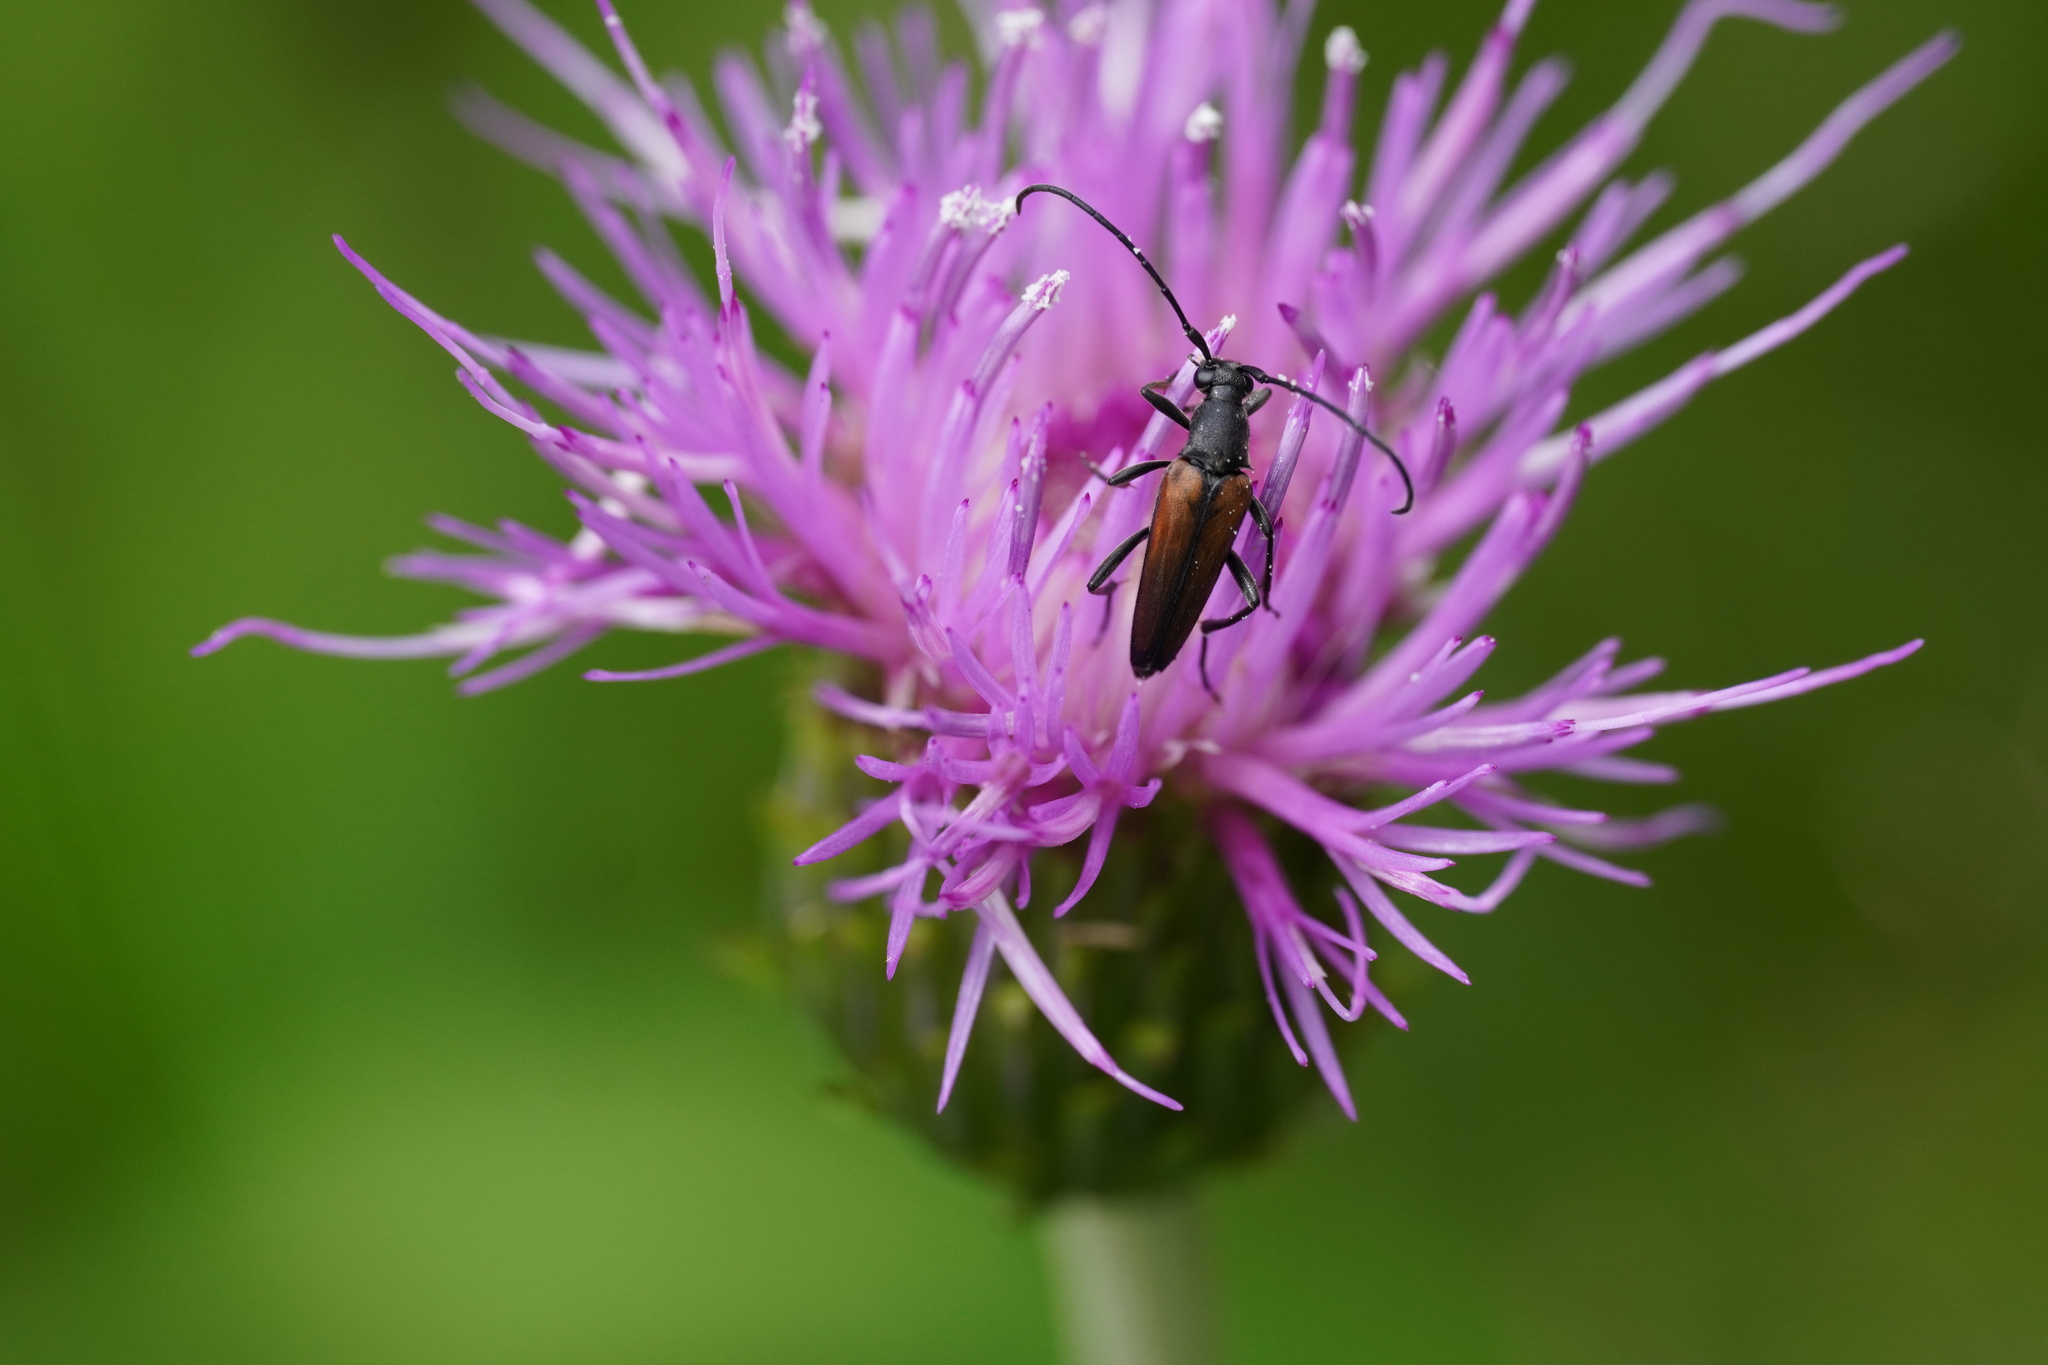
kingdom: Animalia
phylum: Arthropoda
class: Insecta
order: Coleoptera
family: Cerambycidae
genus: Stenurella
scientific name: Stenurella melanura
